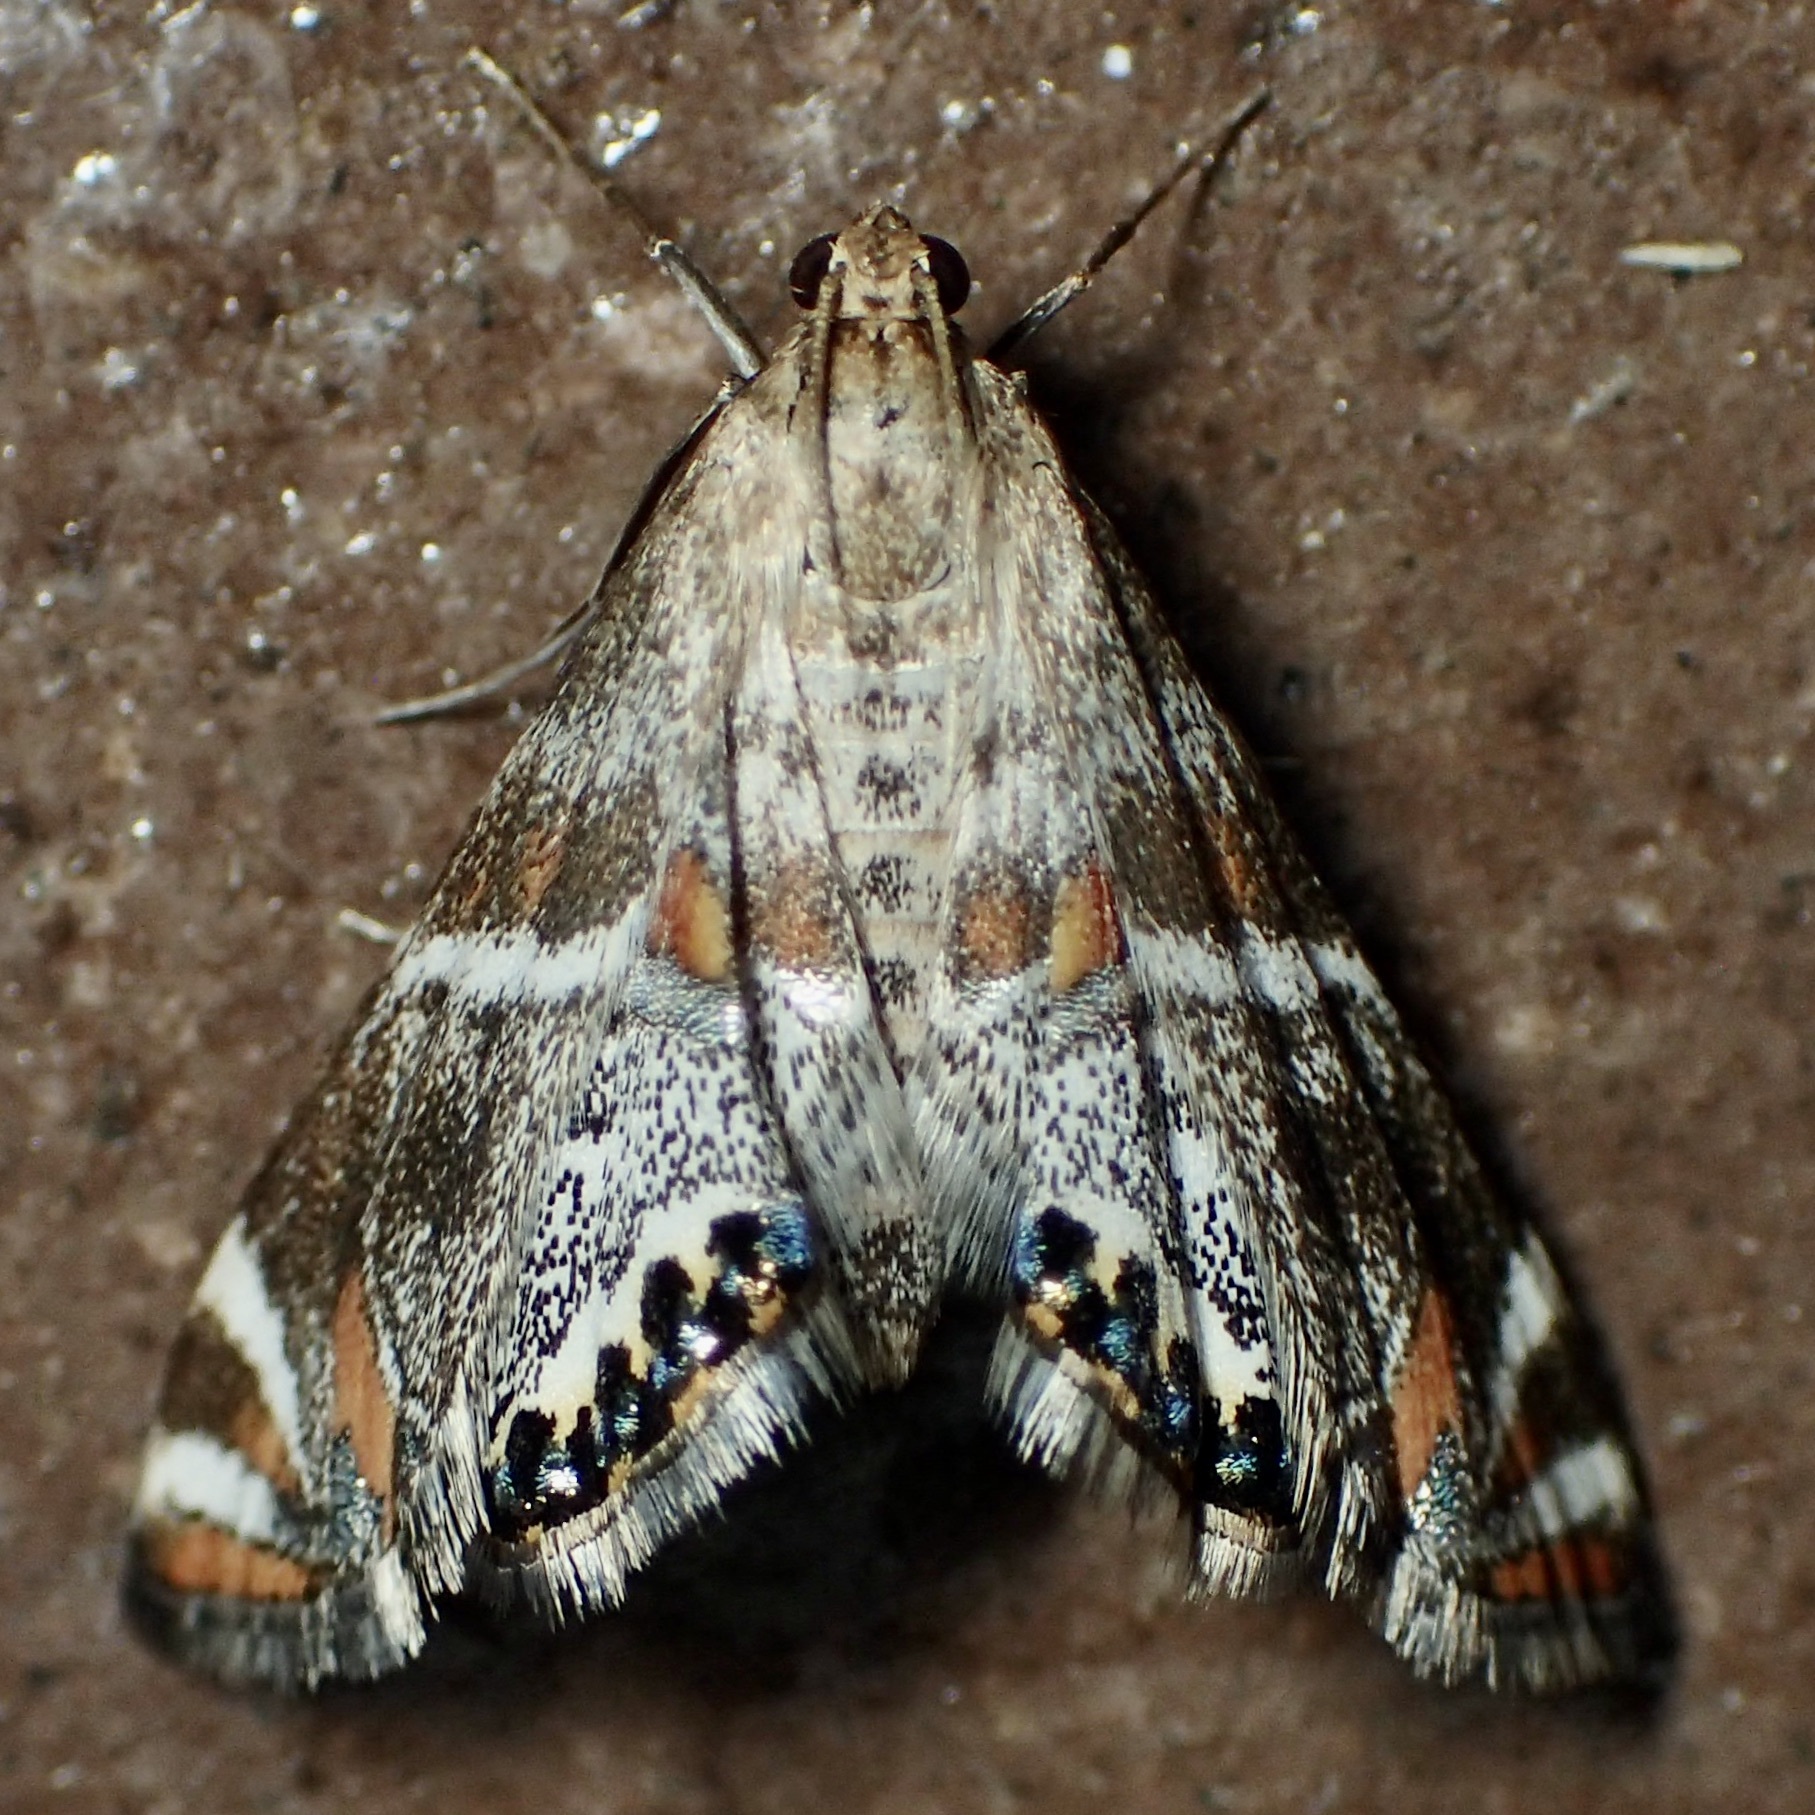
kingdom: Animalia
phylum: Arthropoda
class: Insecta
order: Lepidoptera
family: Crambidae
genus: Petrophila
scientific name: Petrophila jaliscalis
